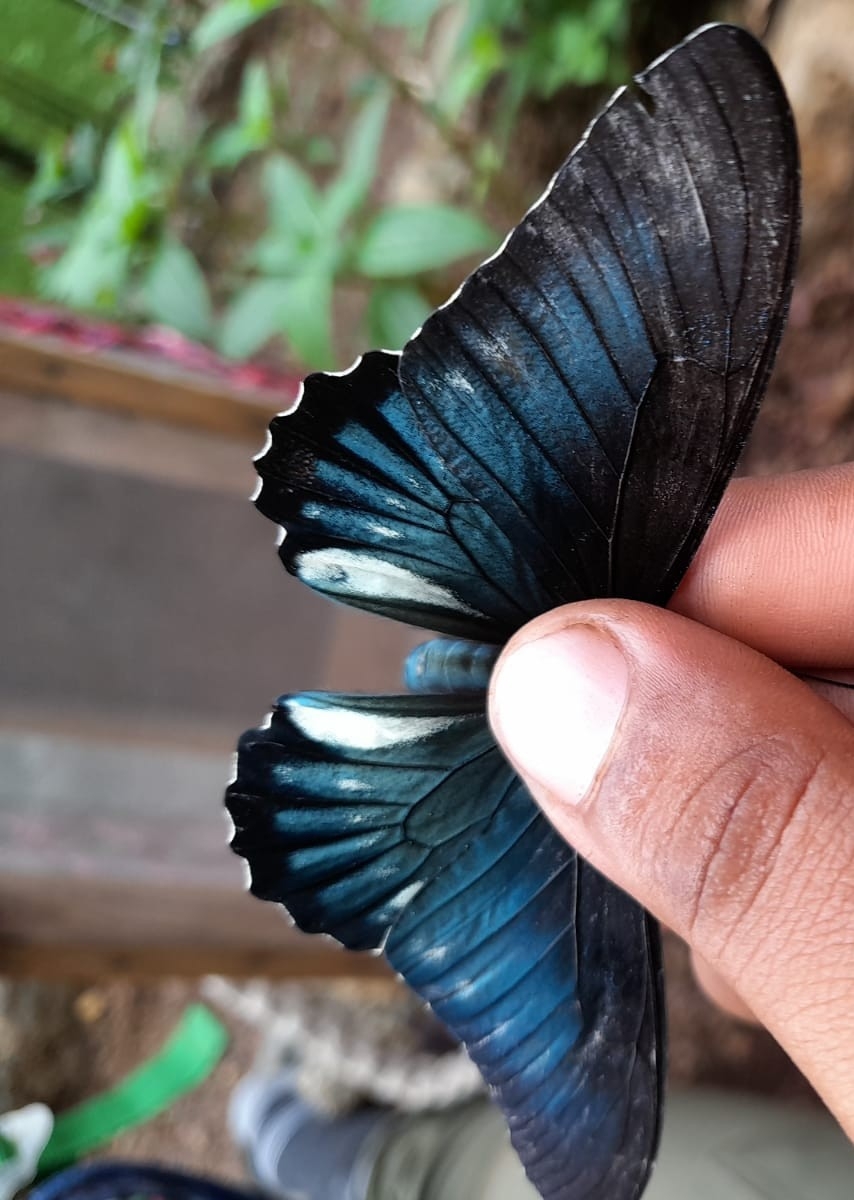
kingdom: Animalia
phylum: Arthropoda
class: Insecta
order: Lepidoptera
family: Papilionidae
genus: Battus
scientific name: Battus lycidas
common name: Cramer's swallowtail
